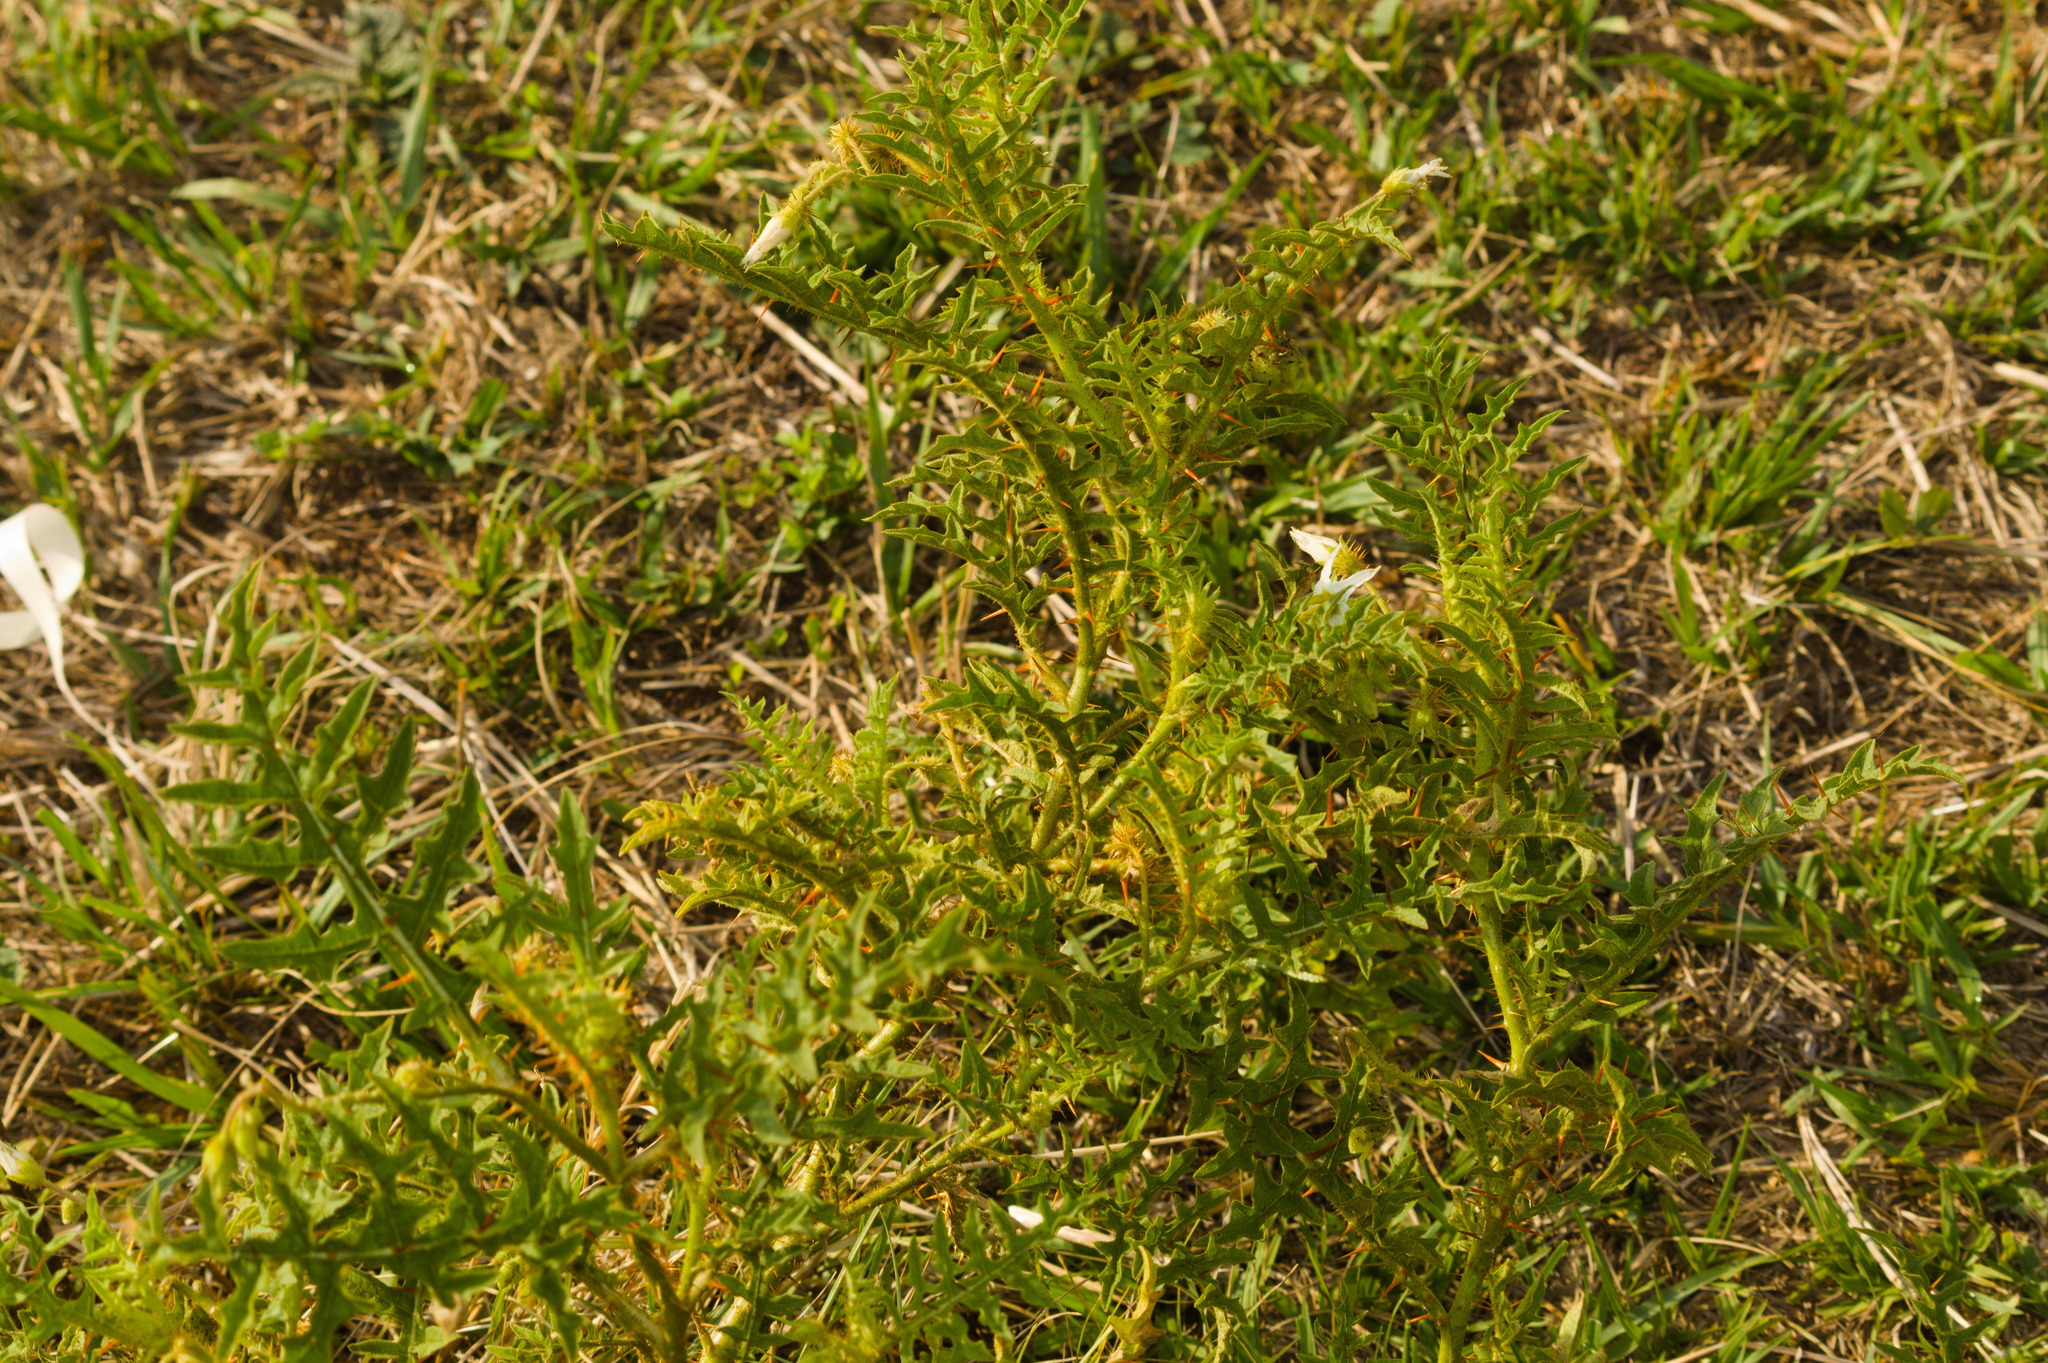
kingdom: Plantae
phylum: Tracheophyta
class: Magnoliopsida
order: Solanales
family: Solanaceae
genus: Solanum
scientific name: Solanum hasslerianum
